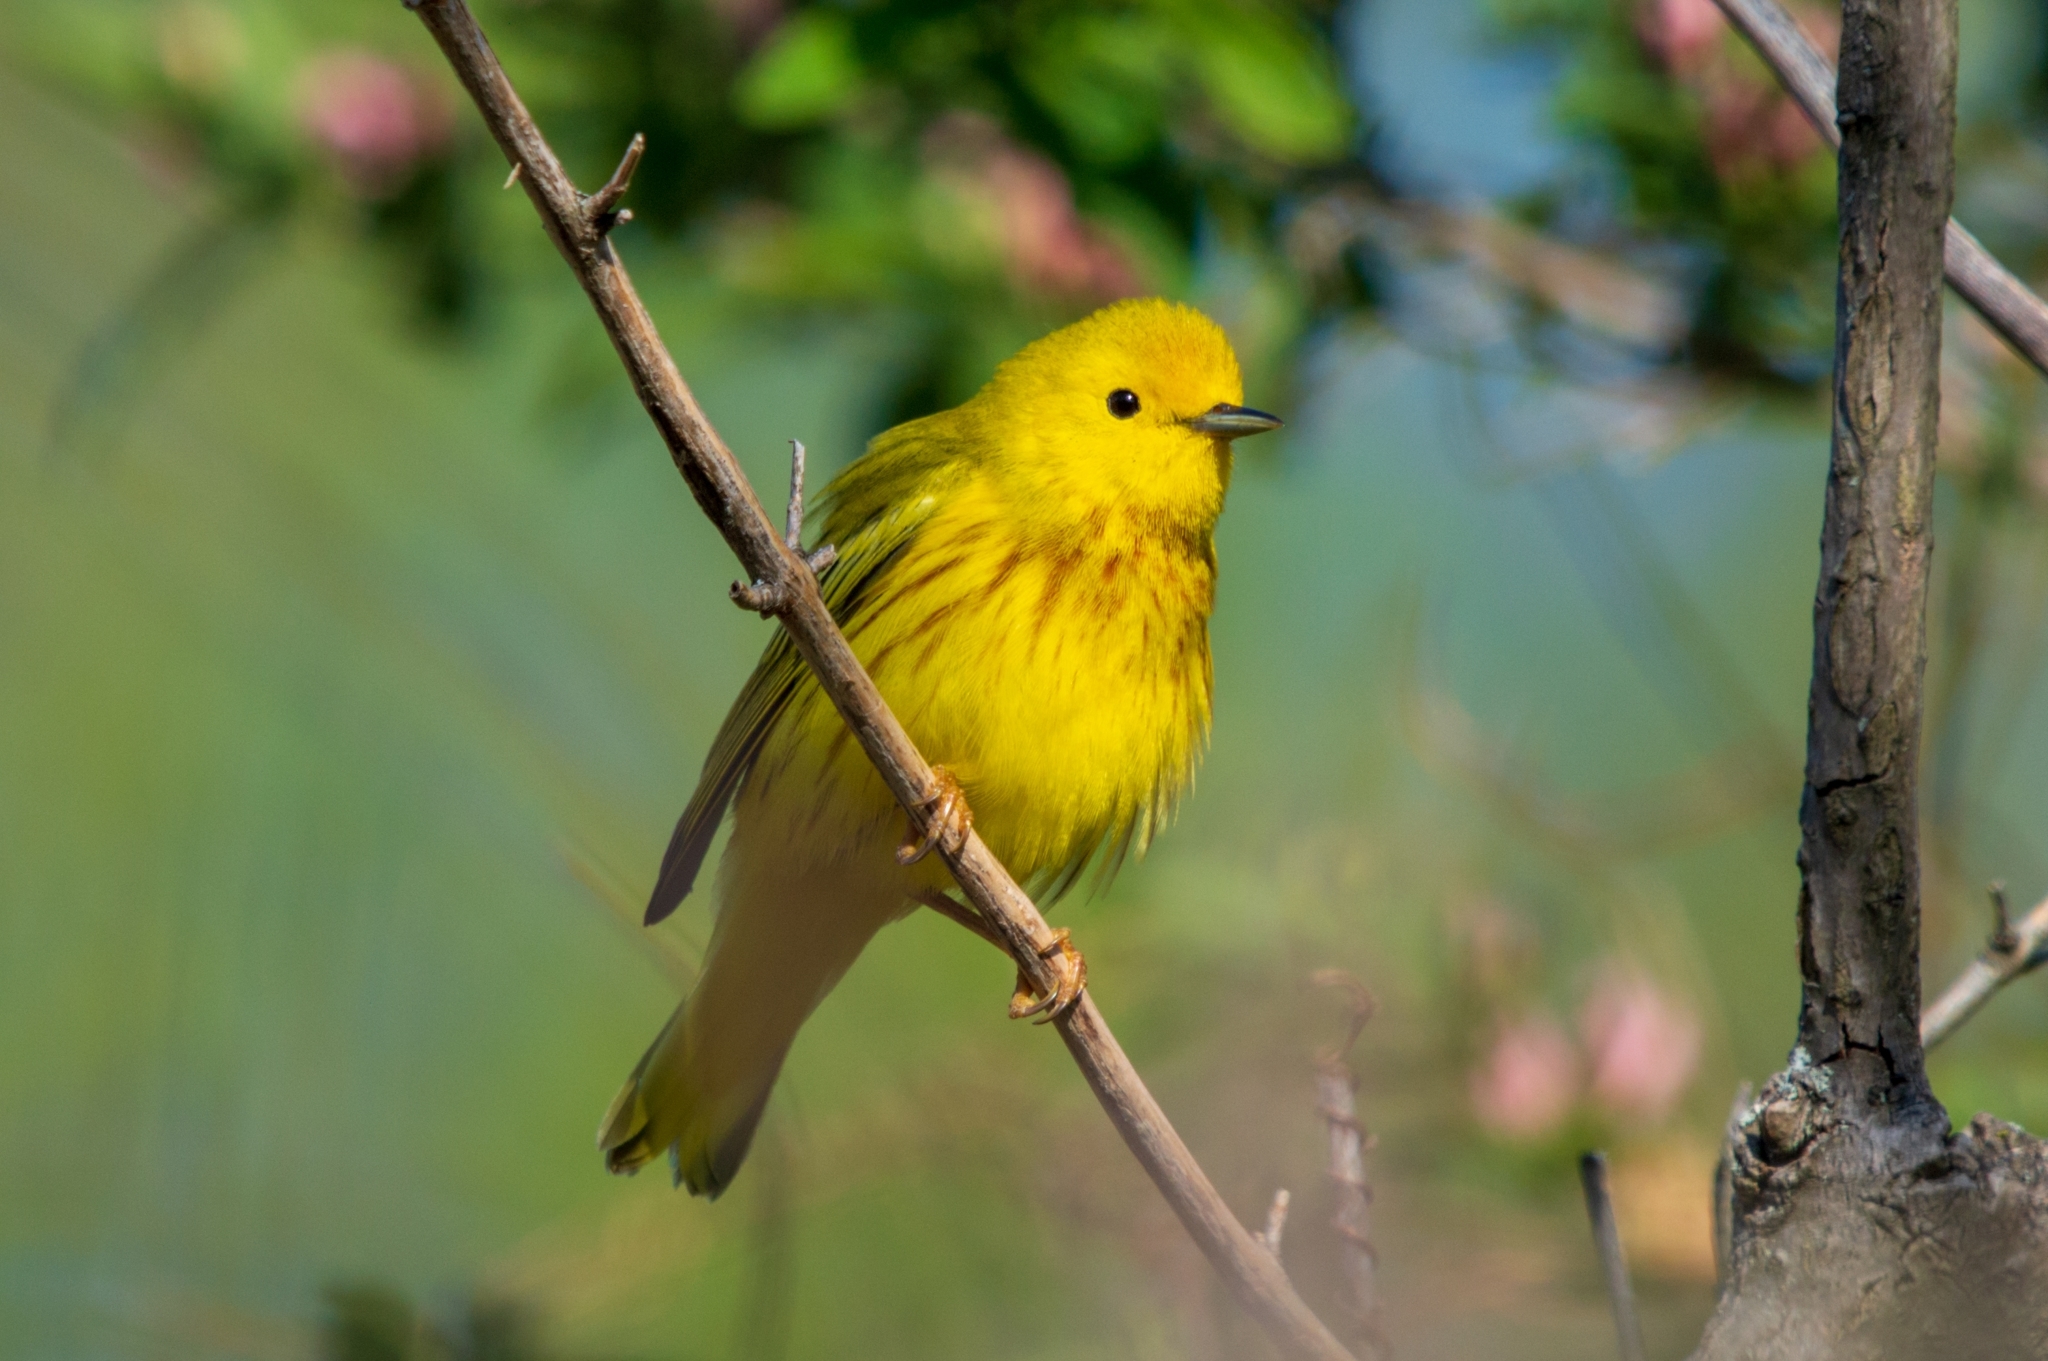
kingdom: Animalia
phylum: Chordata
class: Aves
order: Passeriformes
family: Parulidae
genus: Setophaga
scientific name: Setophaga petechia
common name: Yellow warbler
